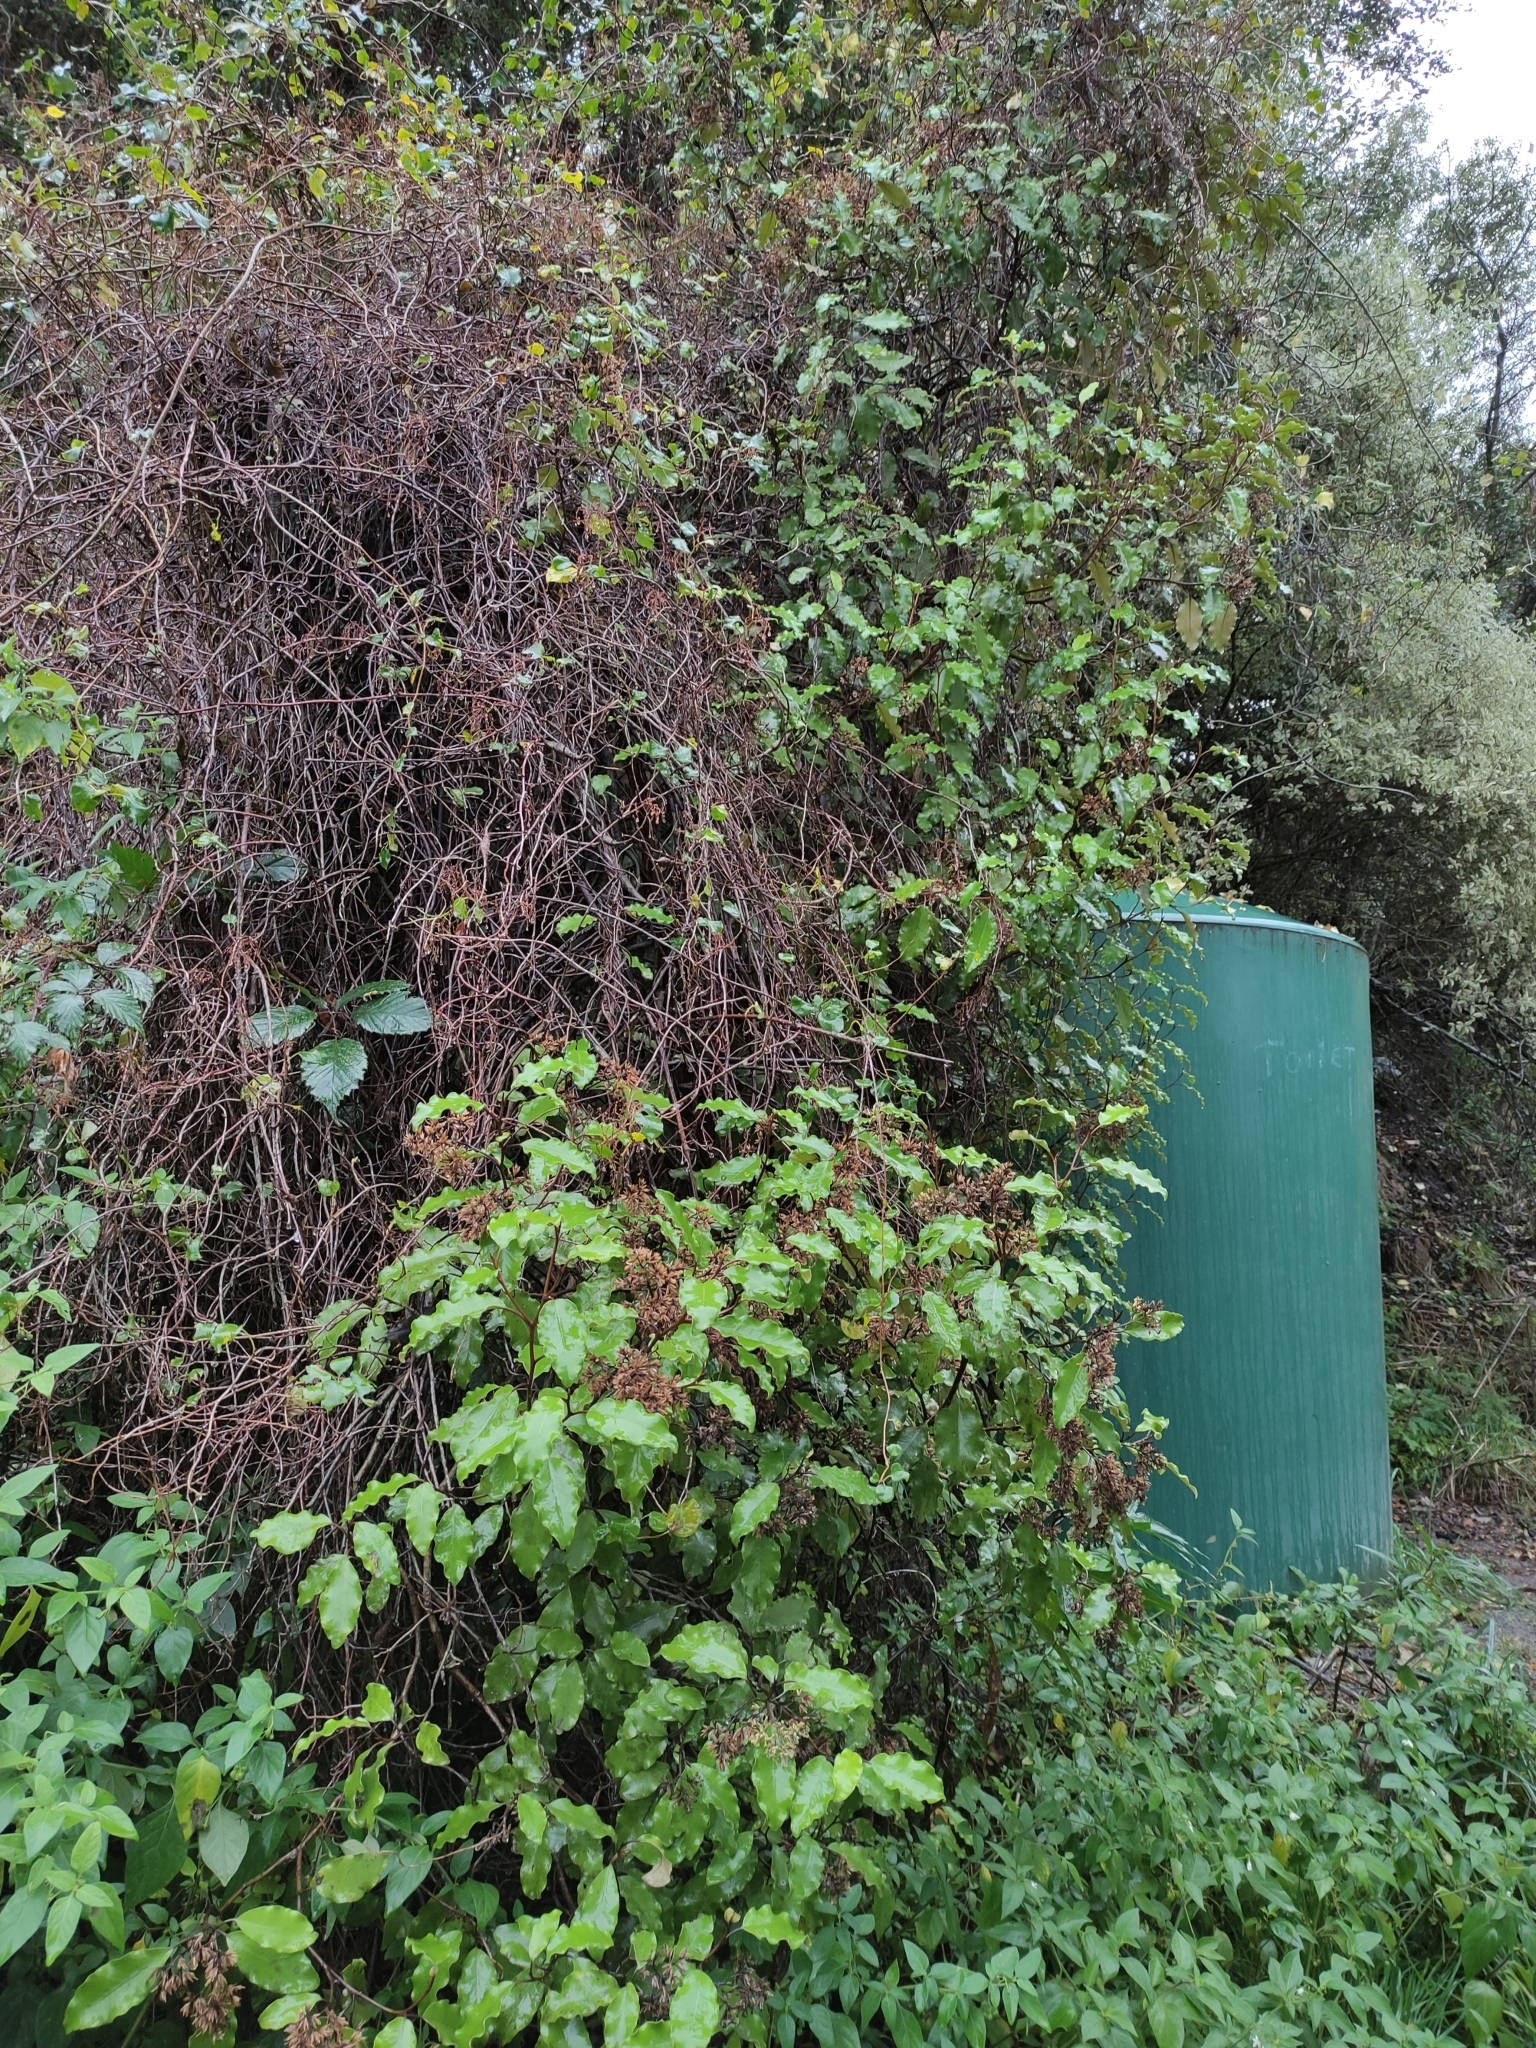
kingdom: Plantae
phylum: Tracheophyta
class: Magnoliopsida
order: Asterales
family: Asteraceae
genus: Olearia
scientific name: Olearia paniculata
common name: Akiraho
